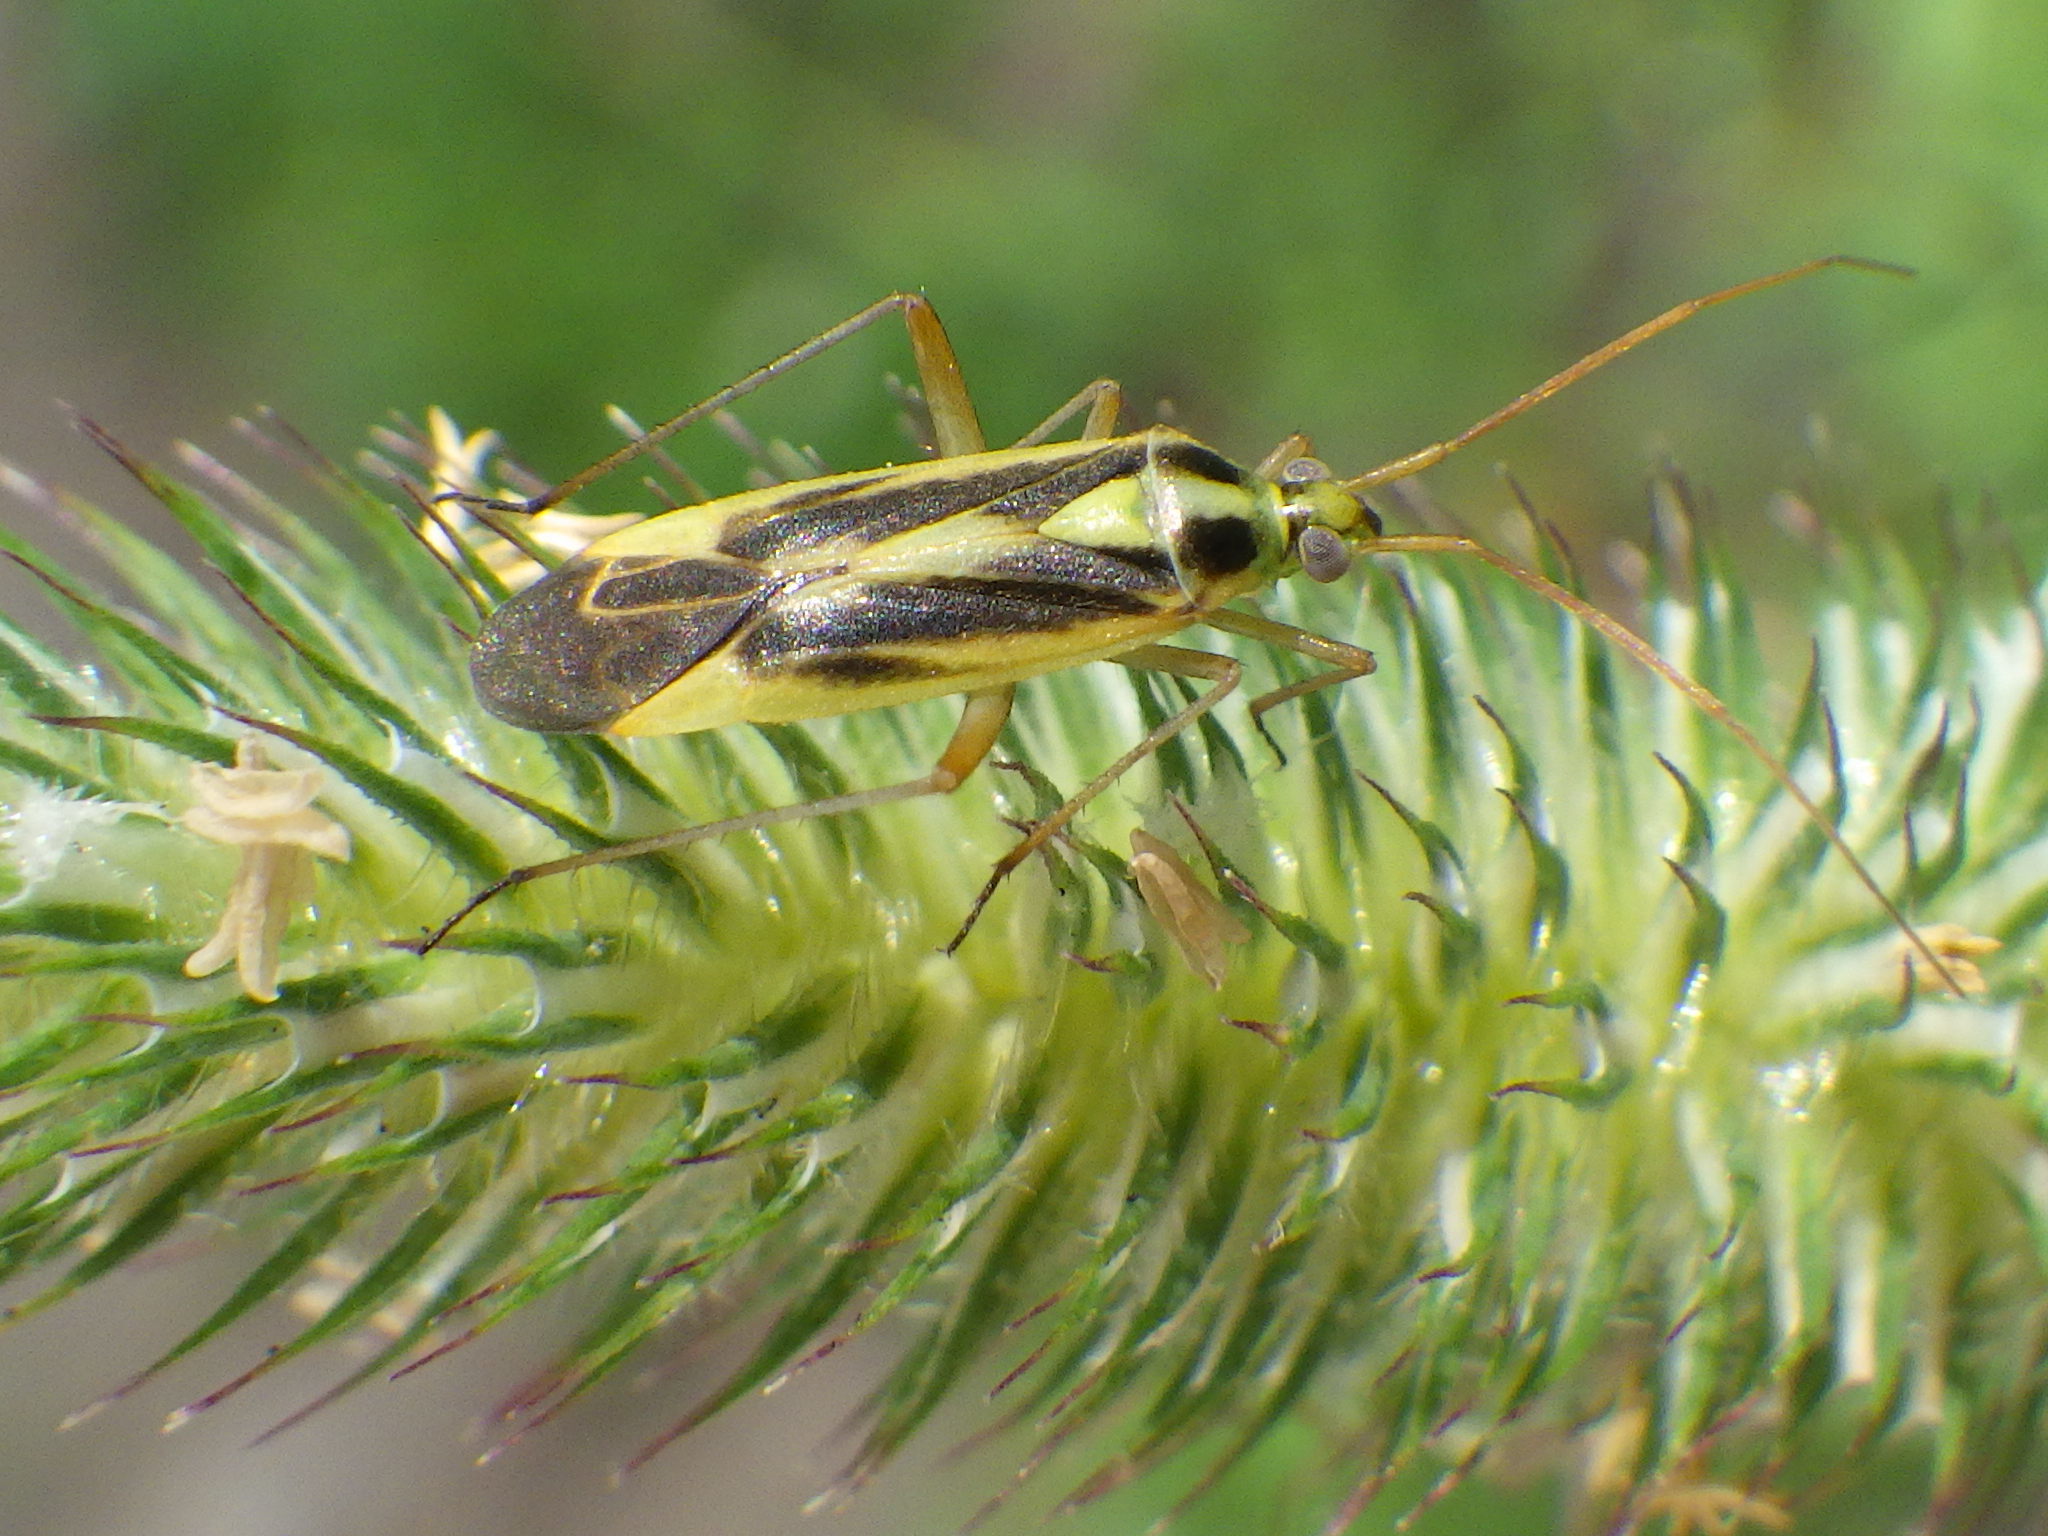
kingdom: Animalia
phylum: Arthropoda
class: Insecta
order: Hemiptera
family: Miridae
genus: Stenotus
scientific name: Stenotus binotatus
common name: Plant bug
